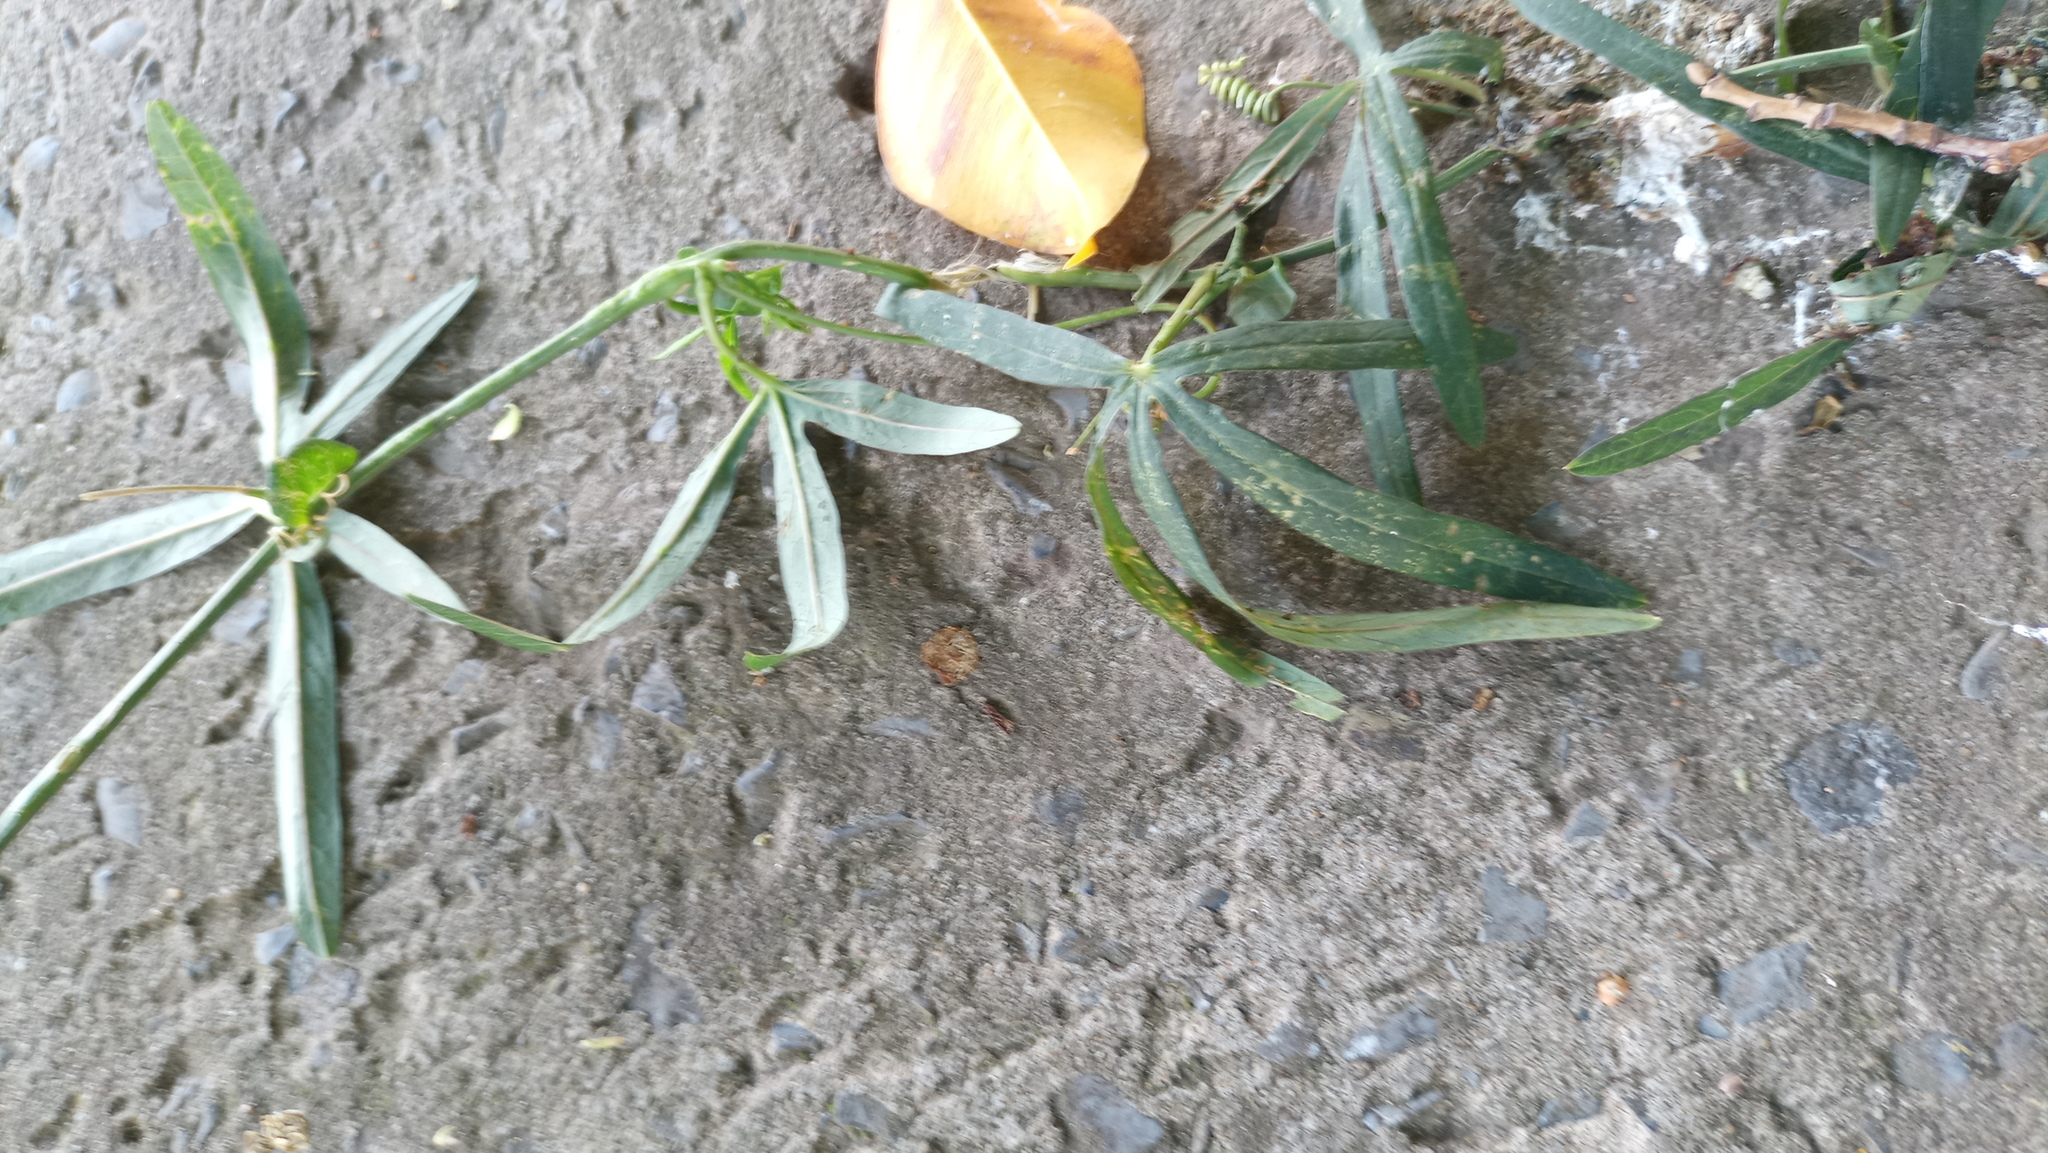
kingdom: Plantae
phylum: Tracheophyta
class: Magnoliopsida
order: Malpighiales
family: Passifloraceae
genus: Passiflora
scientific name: Passiflora caerulea
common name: Blue passionflower
